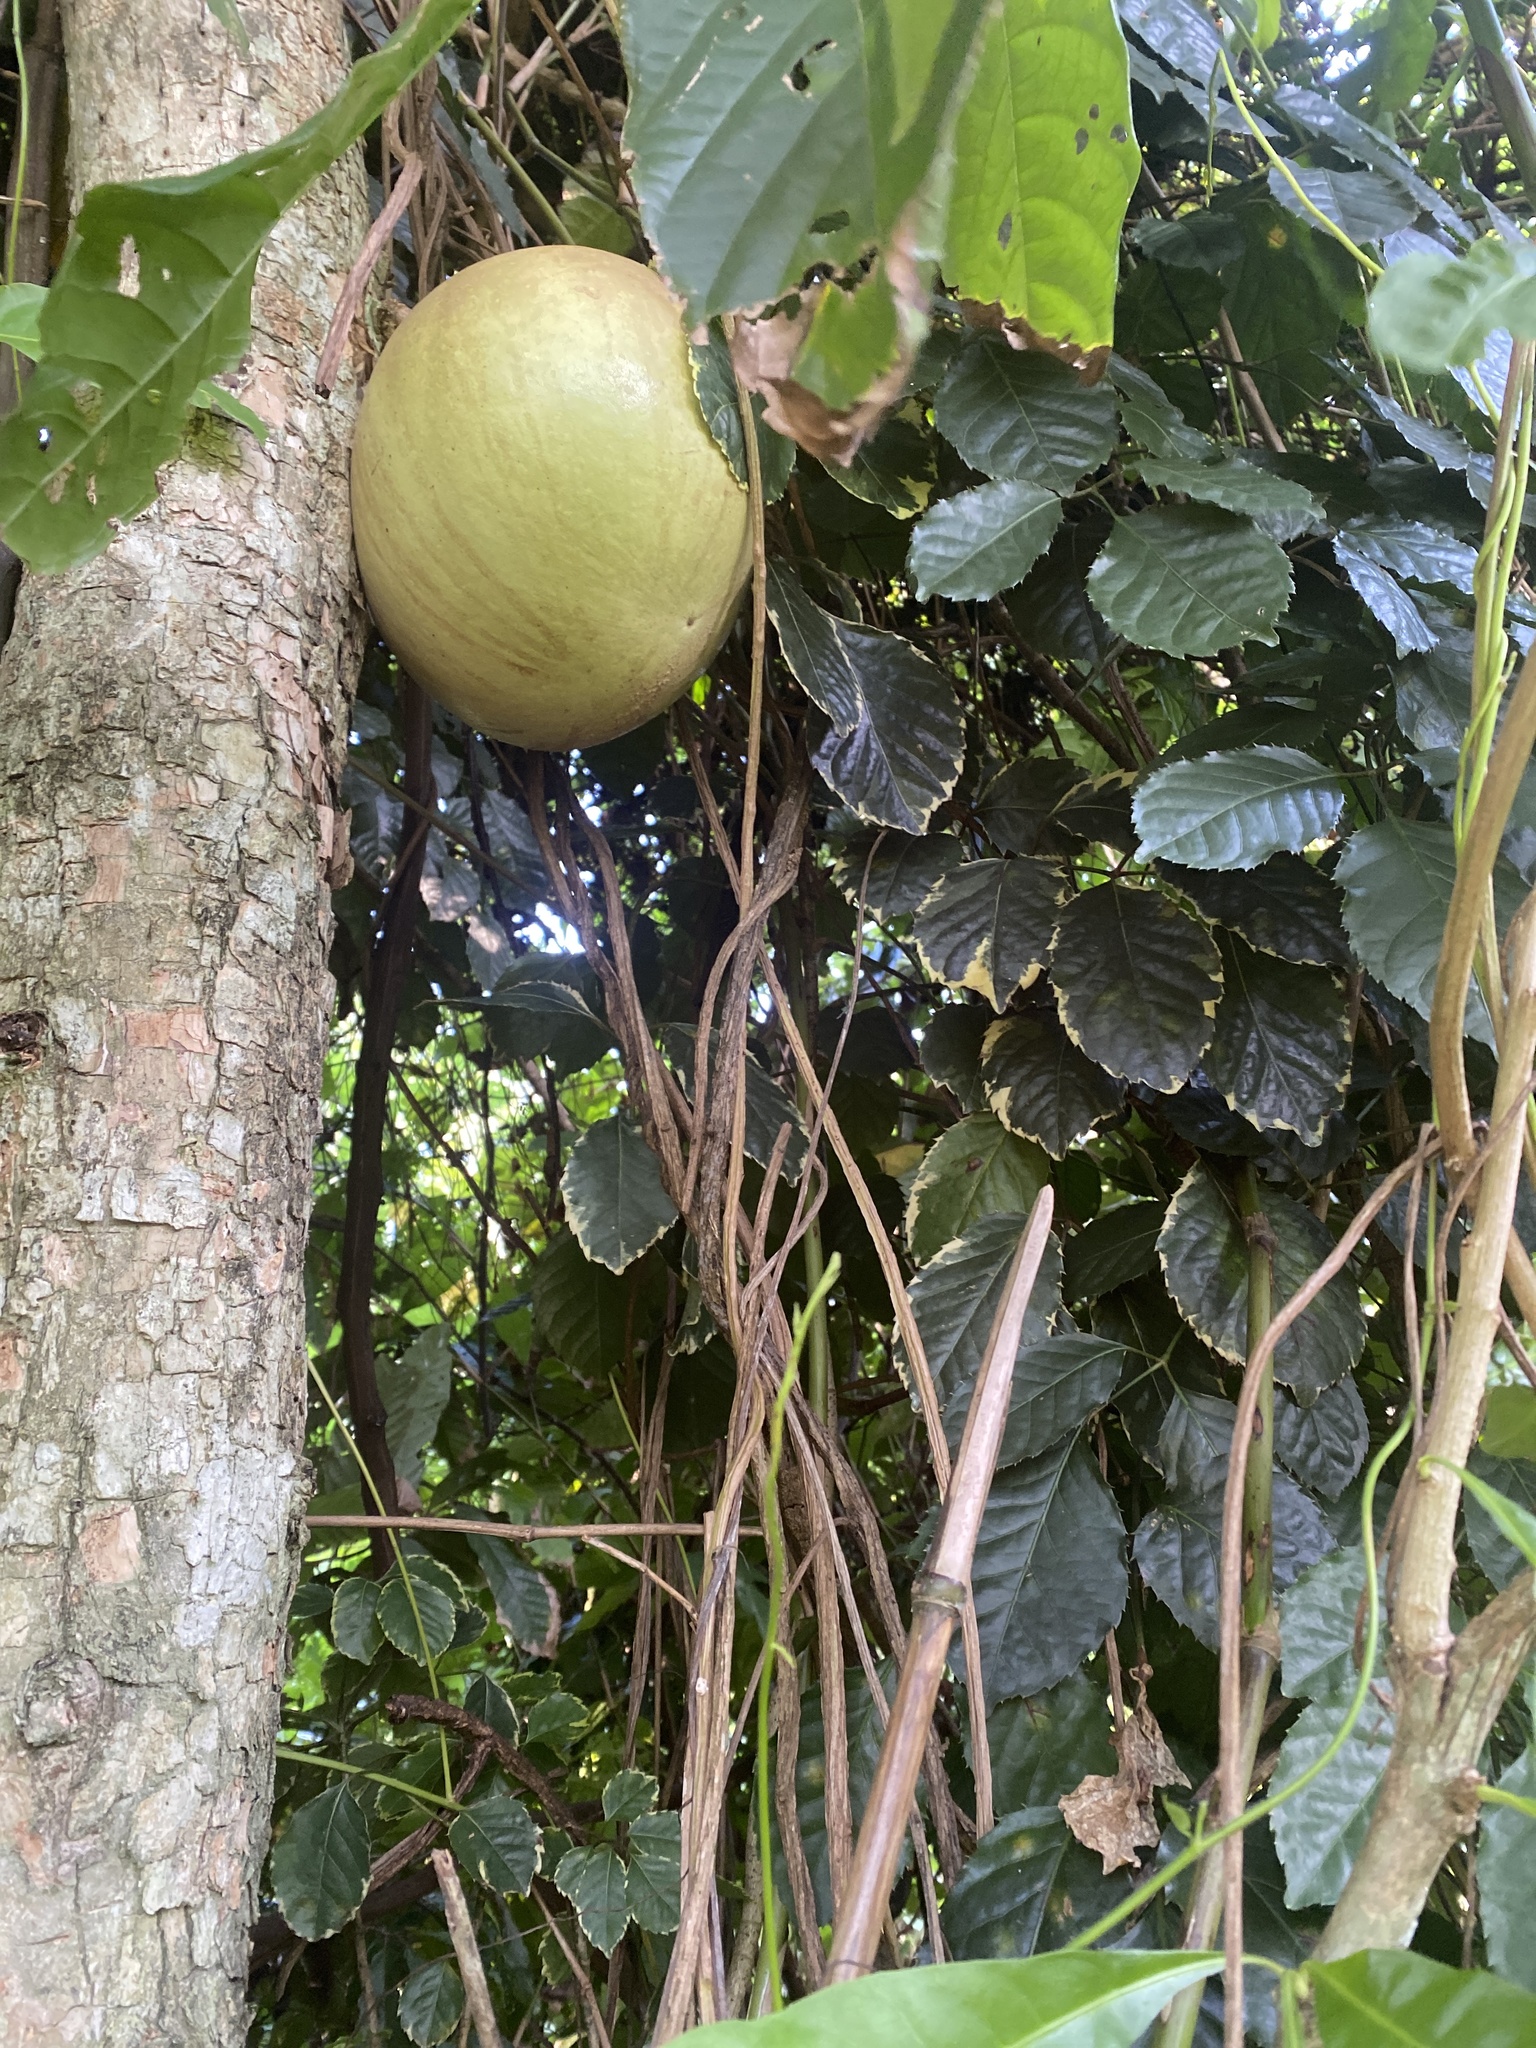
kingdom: Plantae
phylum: Tracheophyta
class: Magnoliopsida
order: Lamiales
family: Bignoniaceae
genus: Crescentia
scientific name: Crescentia cujete
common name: Calabash
